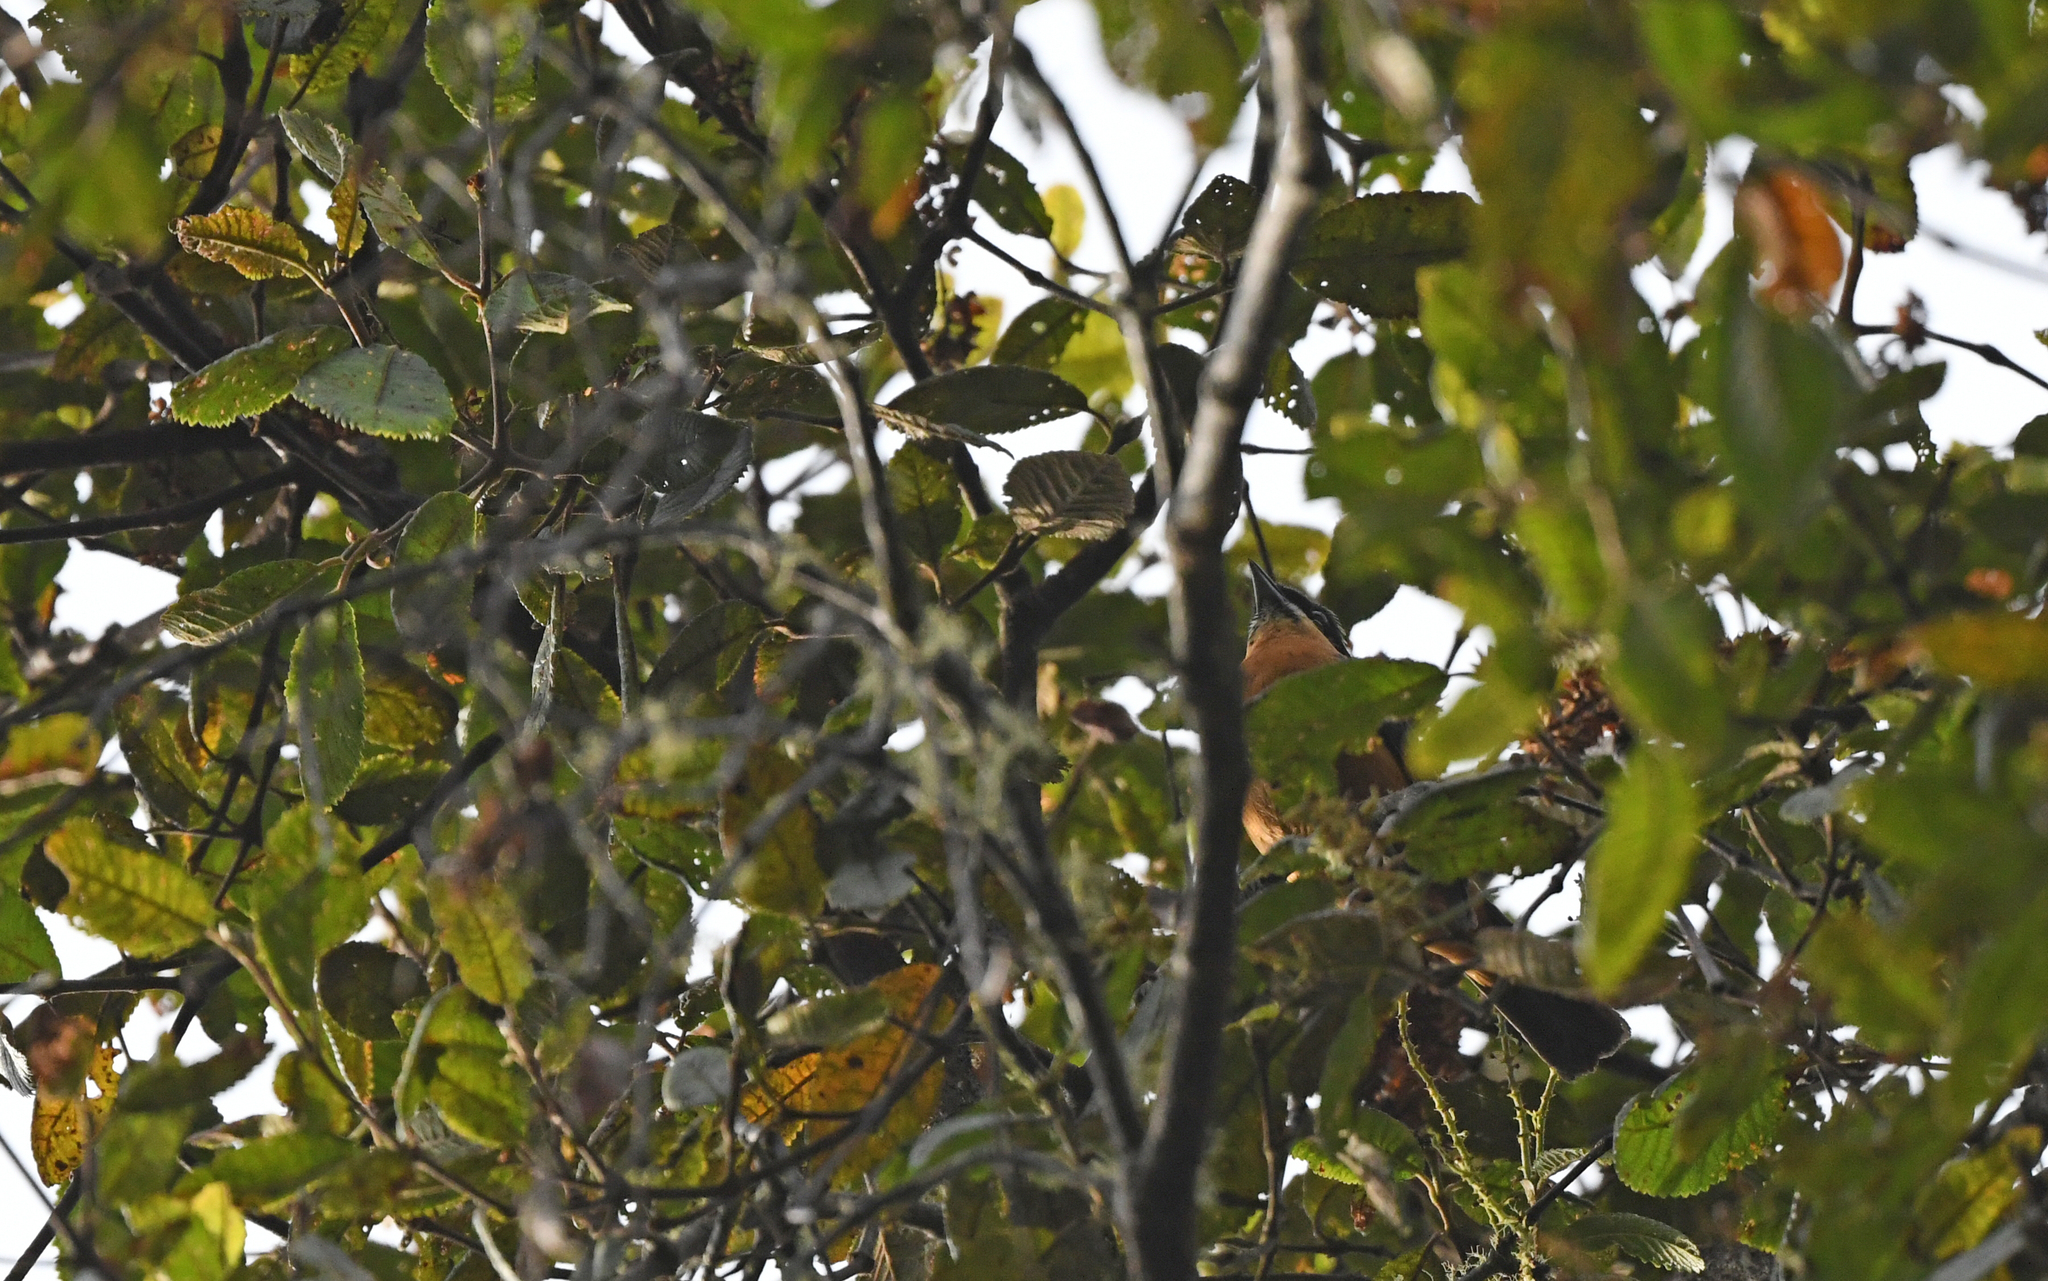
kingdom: Animalia
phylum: Chordata
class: Aves
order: Passeriformes
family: Thraupidae
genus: Dubusia
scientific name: Dubusia castaneoventris
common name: Chestnut-bellied mountain-tanager
